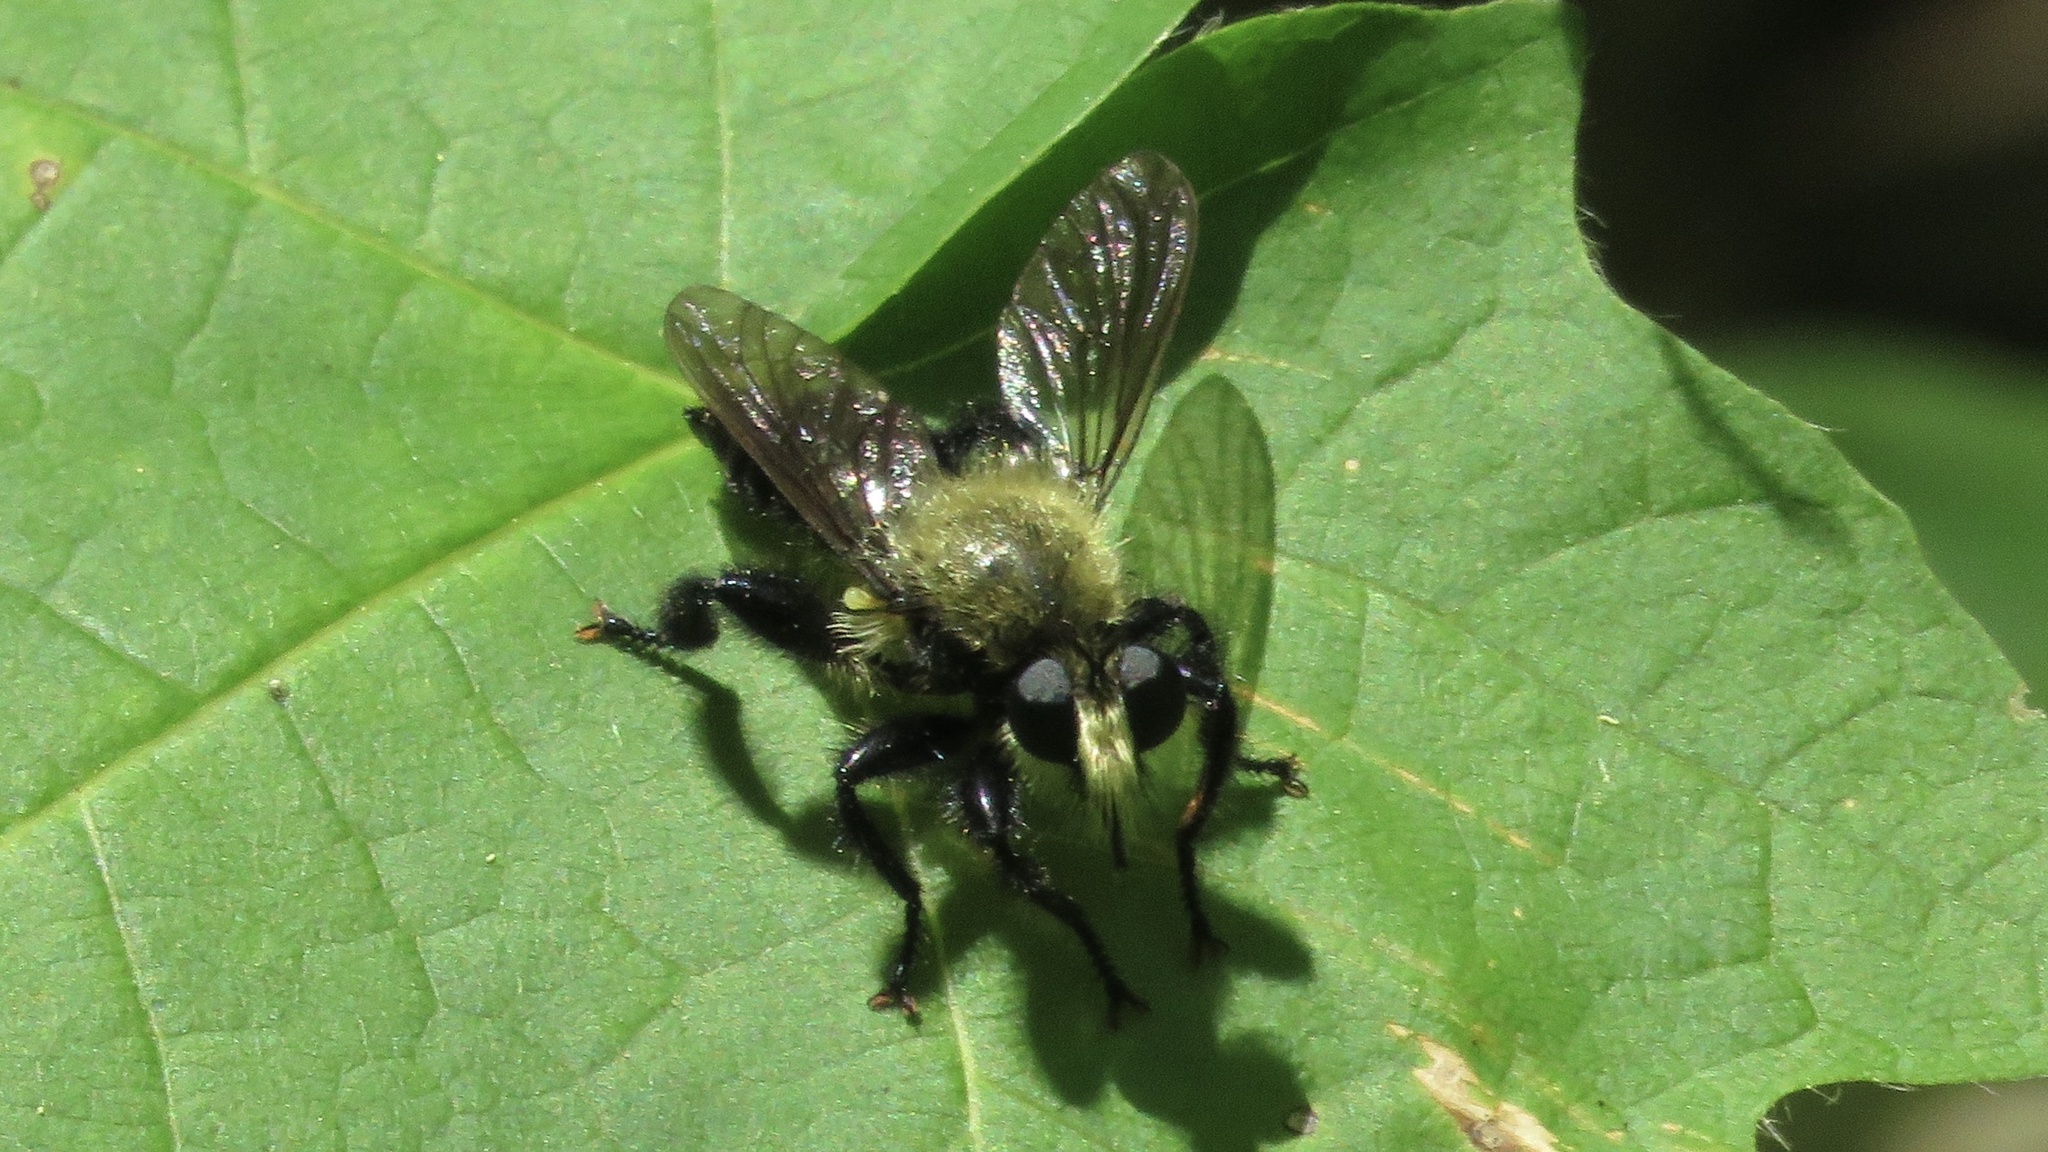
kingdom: Animalia
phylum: Arthropoda
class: Insecta
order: Diptera
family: Asilidae
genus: Laphria
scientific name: Laphria flavicollis
